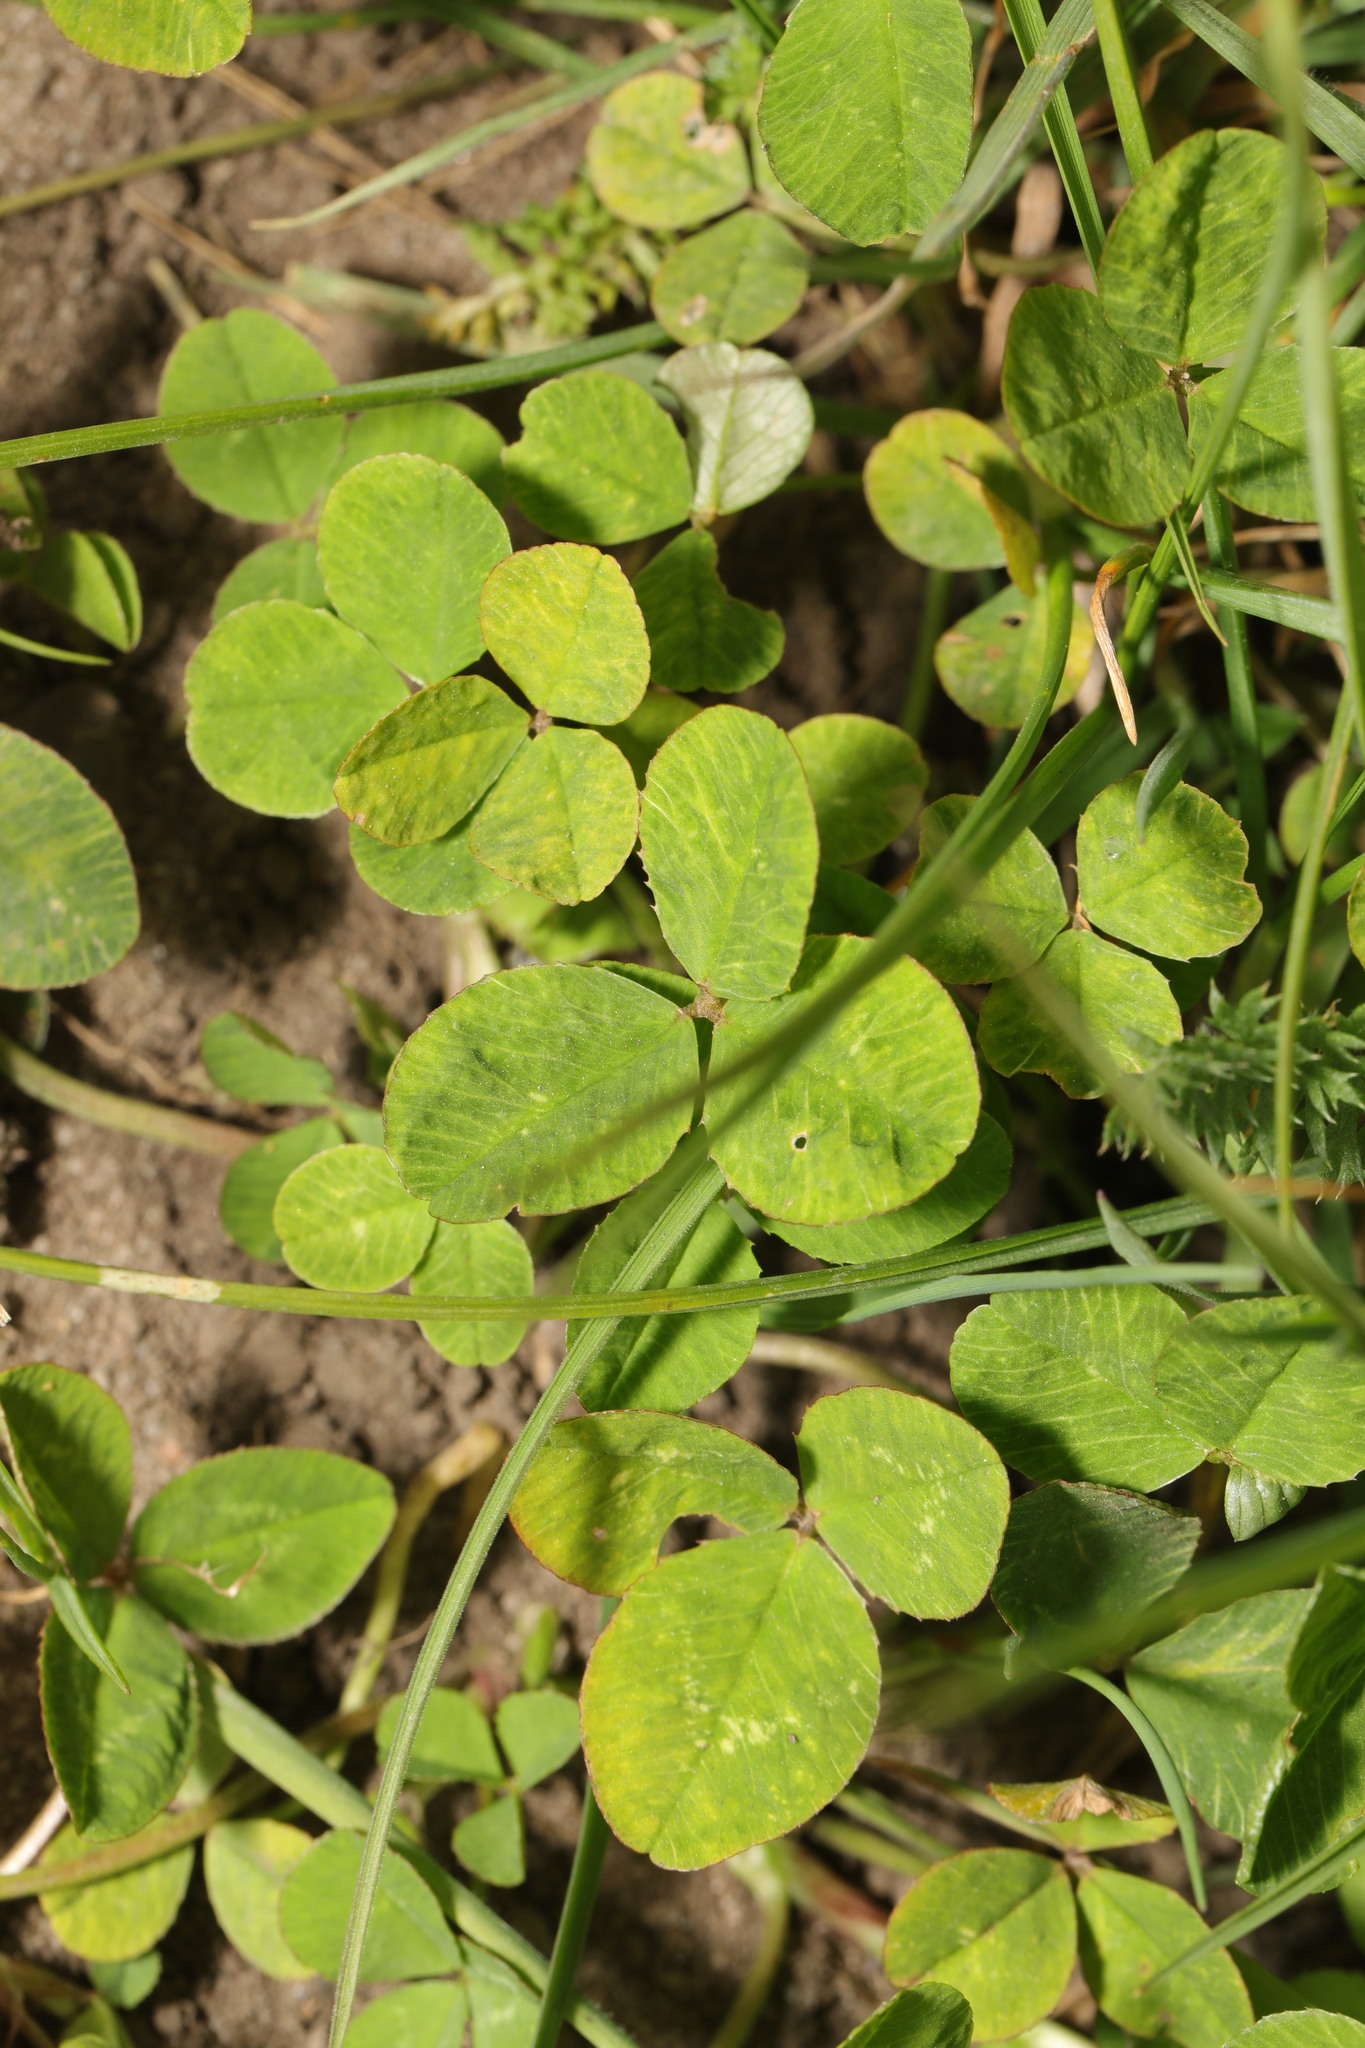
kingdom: Plantae
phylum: Tracheophyta
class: Magnoliopsida
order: Fabales
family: Fabaceae
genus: Trifolium
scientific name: Trifolium repens
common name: White clover
